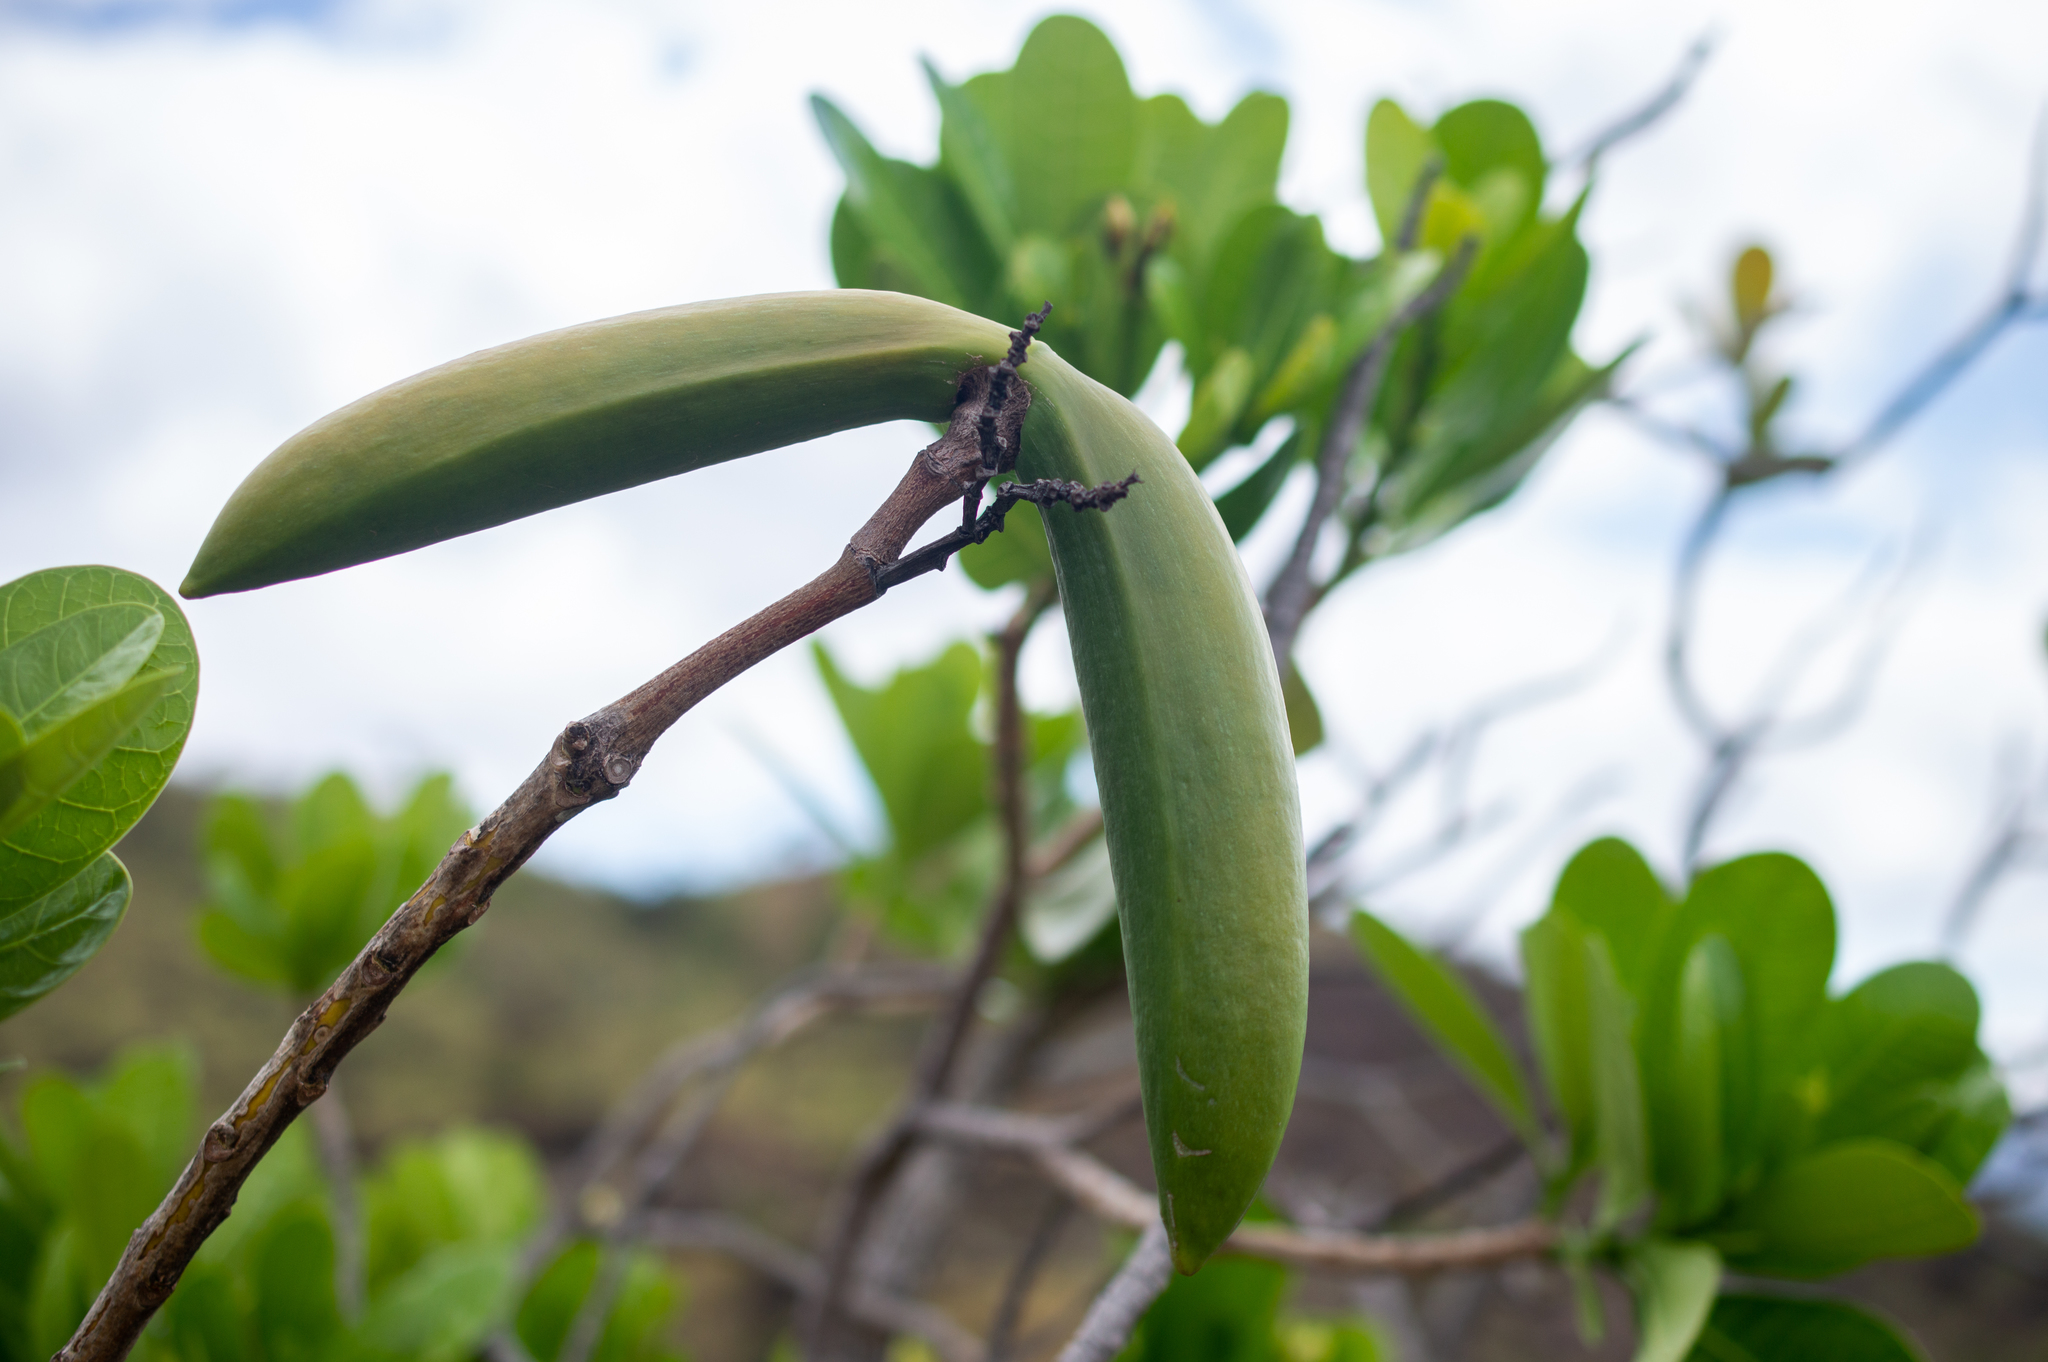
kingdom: Plantae
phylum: Tracheophyta
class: Magnoliopsida
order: Gentianales
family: Apocynaceae
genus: Himatanthus
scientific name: Himatanthus drasticus
